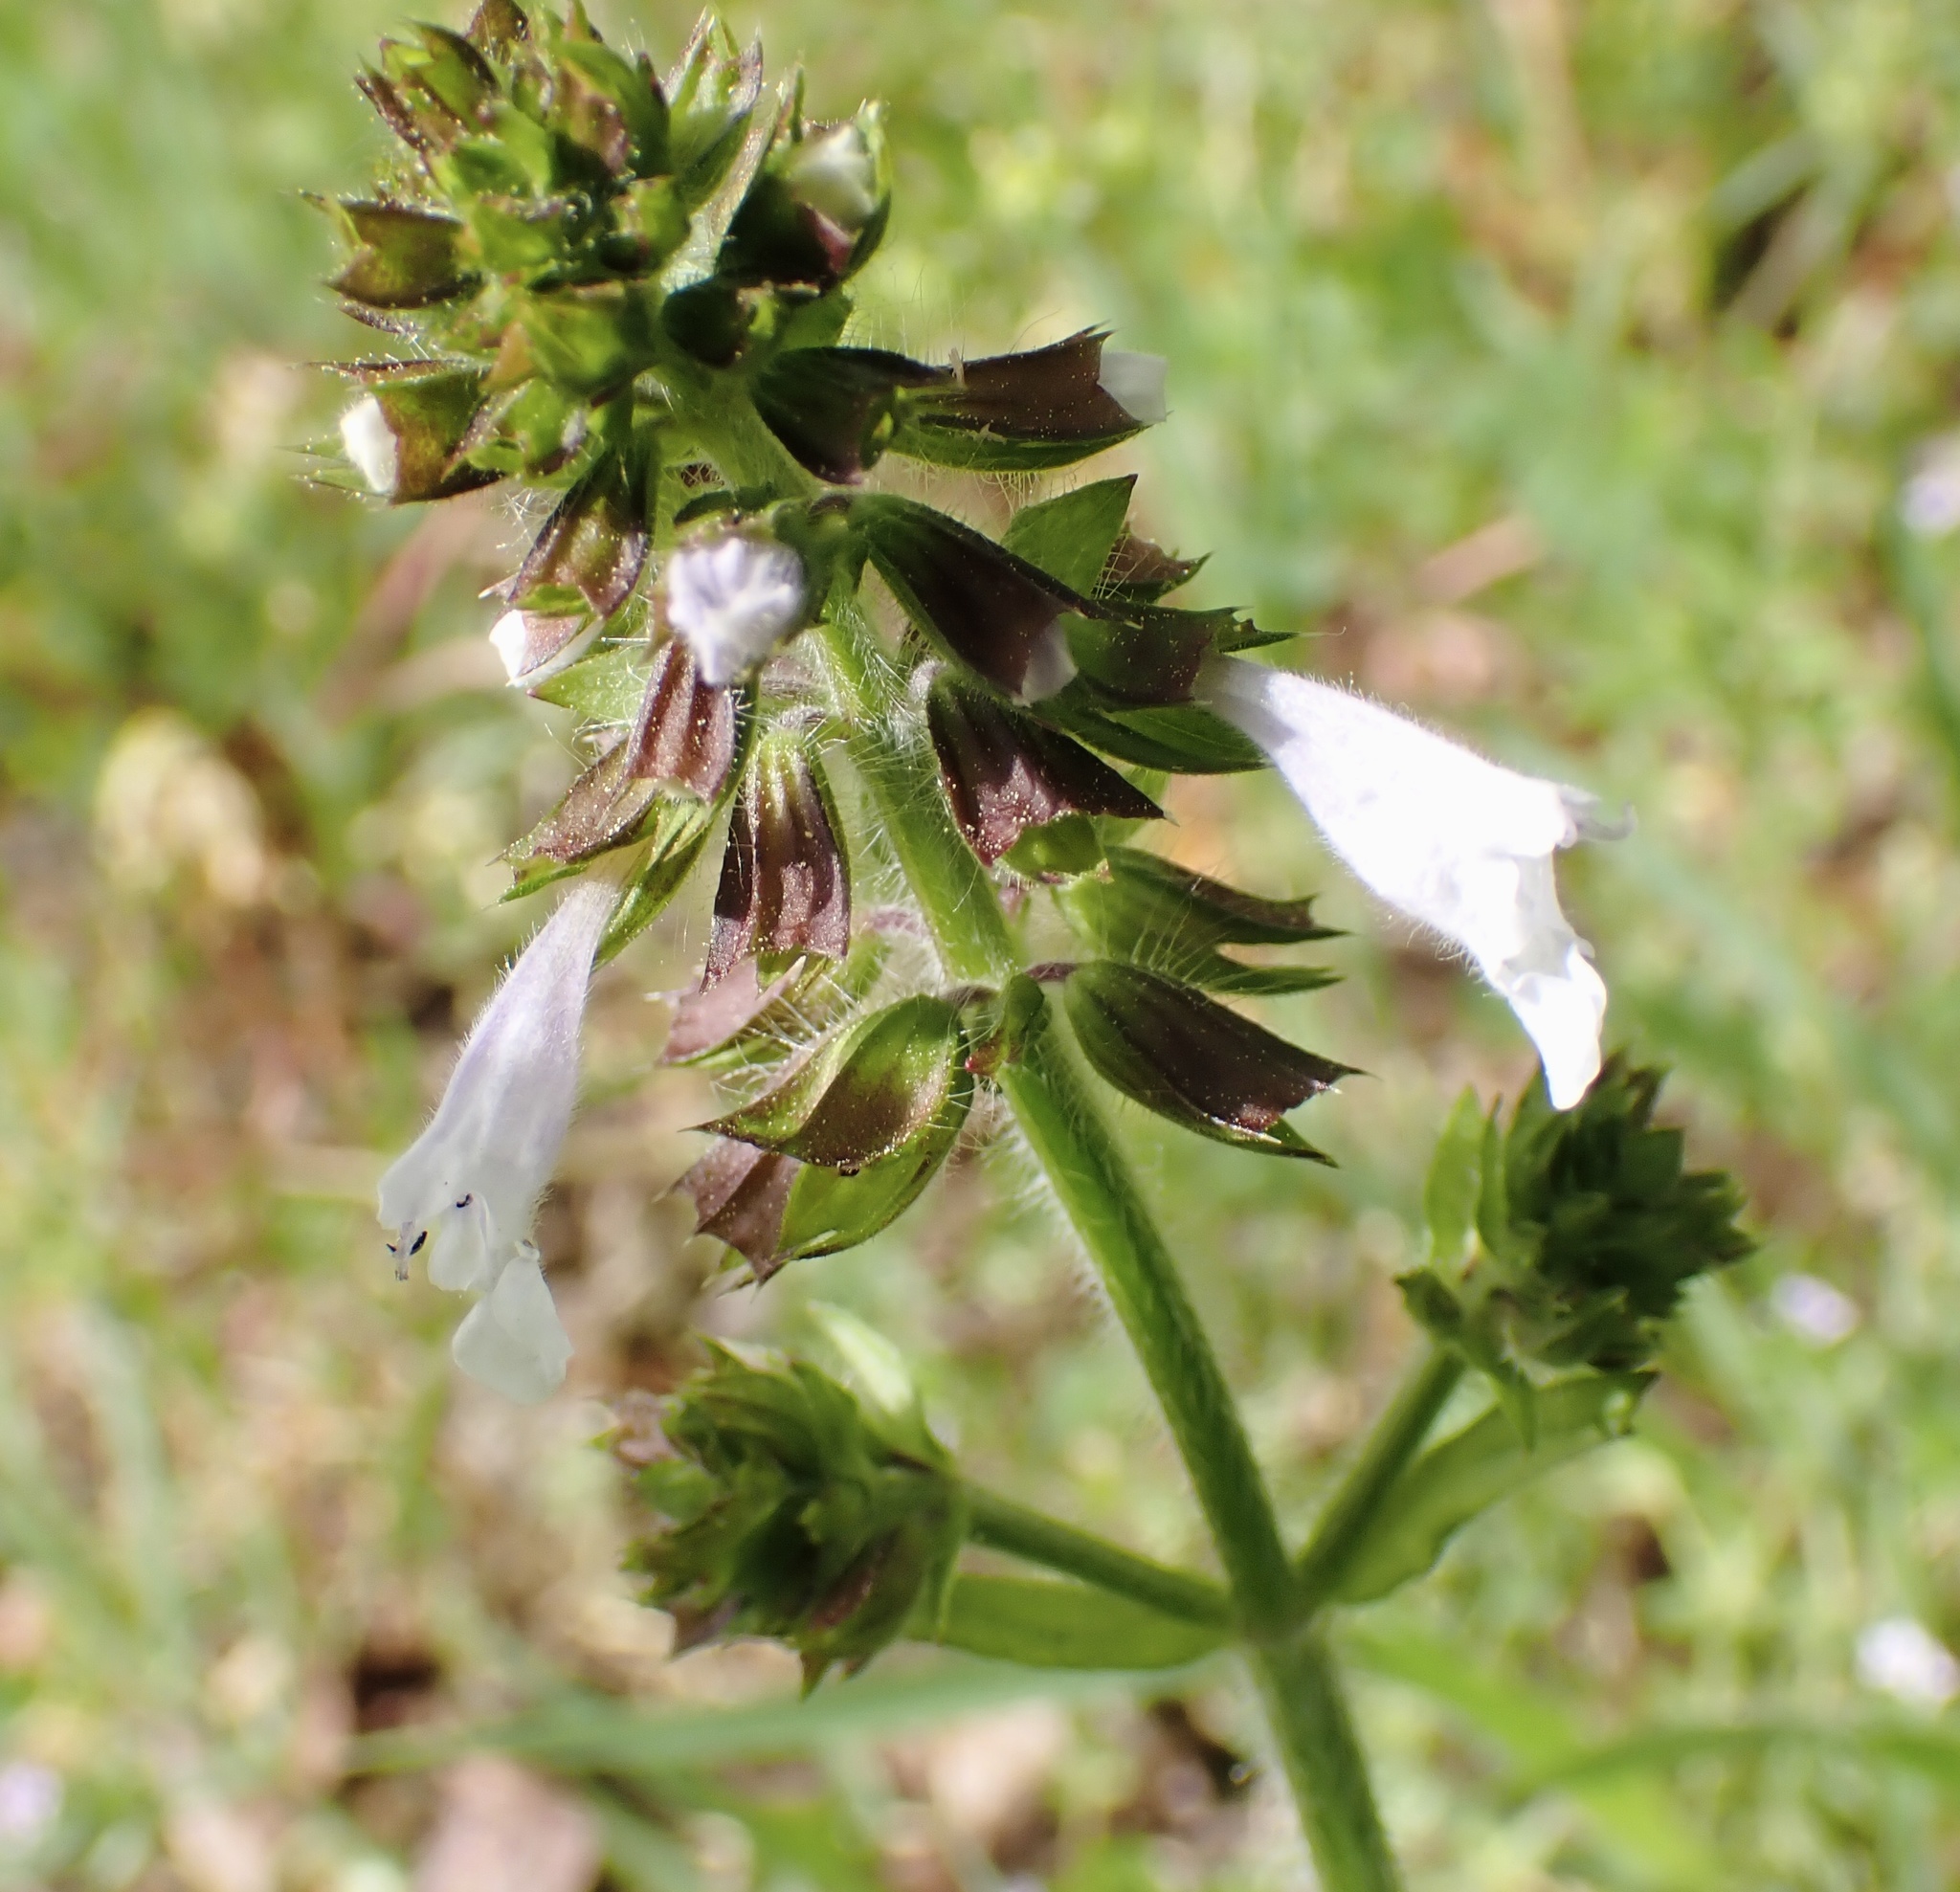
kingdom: Plantae
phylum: Tracheophyta
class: Magnoliopsida
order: Lamiales
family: Lamiaceae
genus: Salvia
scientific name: Salvia lyrata
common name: Cancerweed
